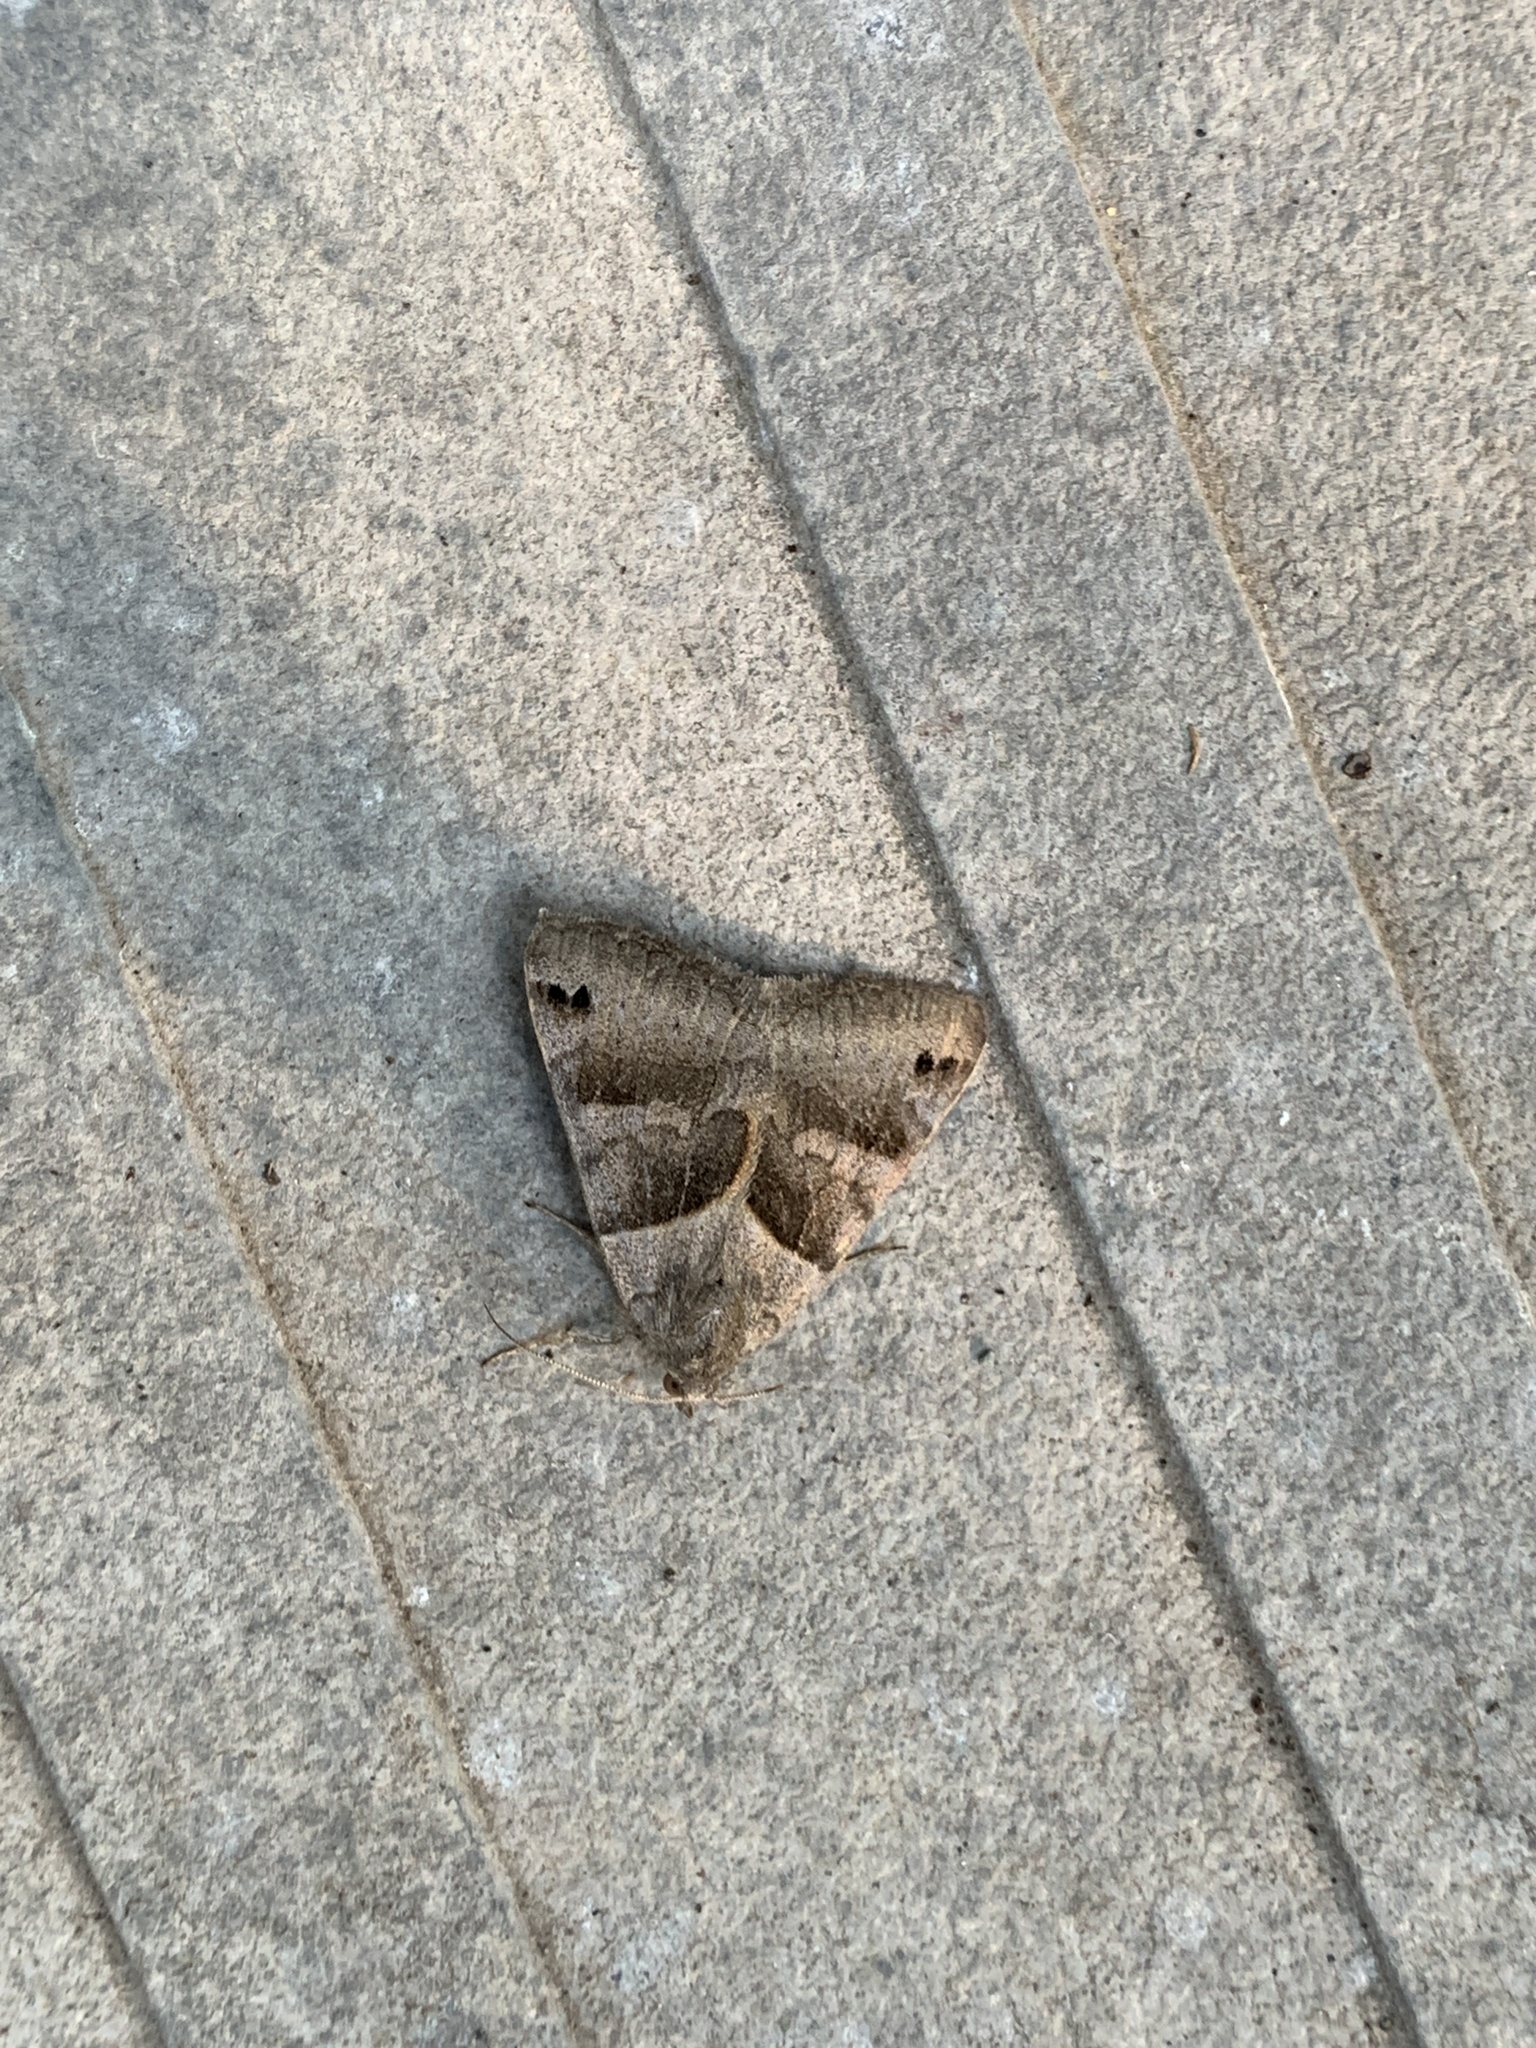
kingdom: Animalia
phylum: Arthropoda
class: Insecta
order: Lepidoptera
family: Erebidae
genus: Caenurgina
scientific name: Caenurgina erechtea
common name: Forage looper moth
